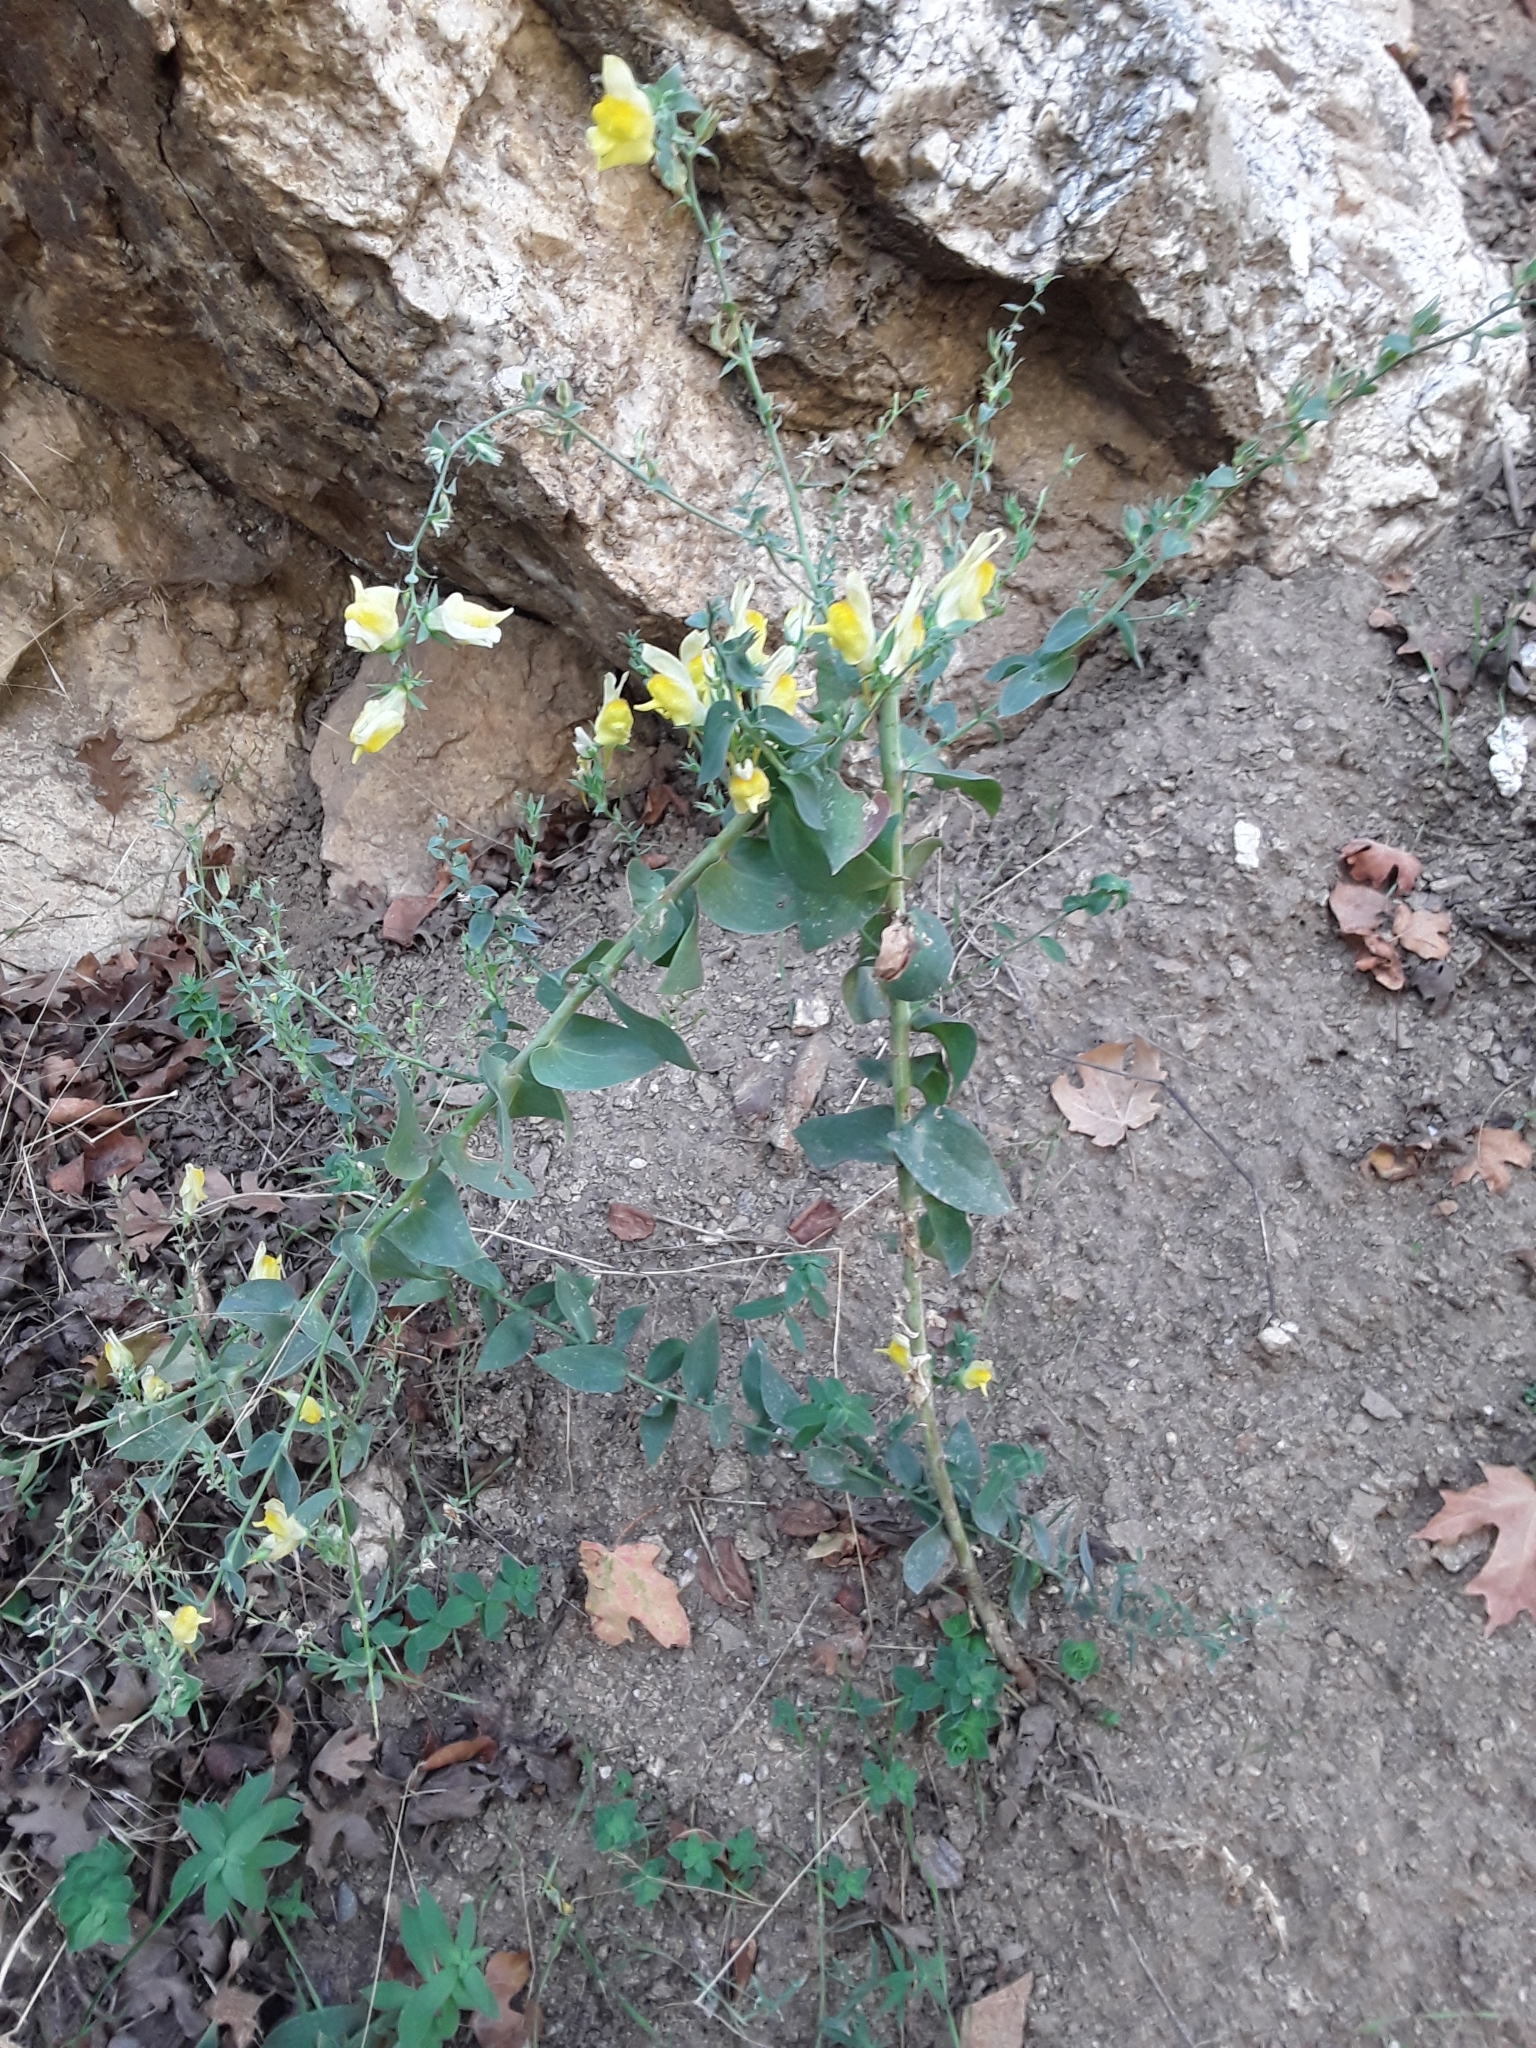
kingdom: Plantae
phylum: Tracheophyta
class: Magnoliopsida
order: Lamiales
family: Plantaginaceae
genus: Linaria
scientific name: Linaria dalmatica
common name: Dalmatian toadflax
